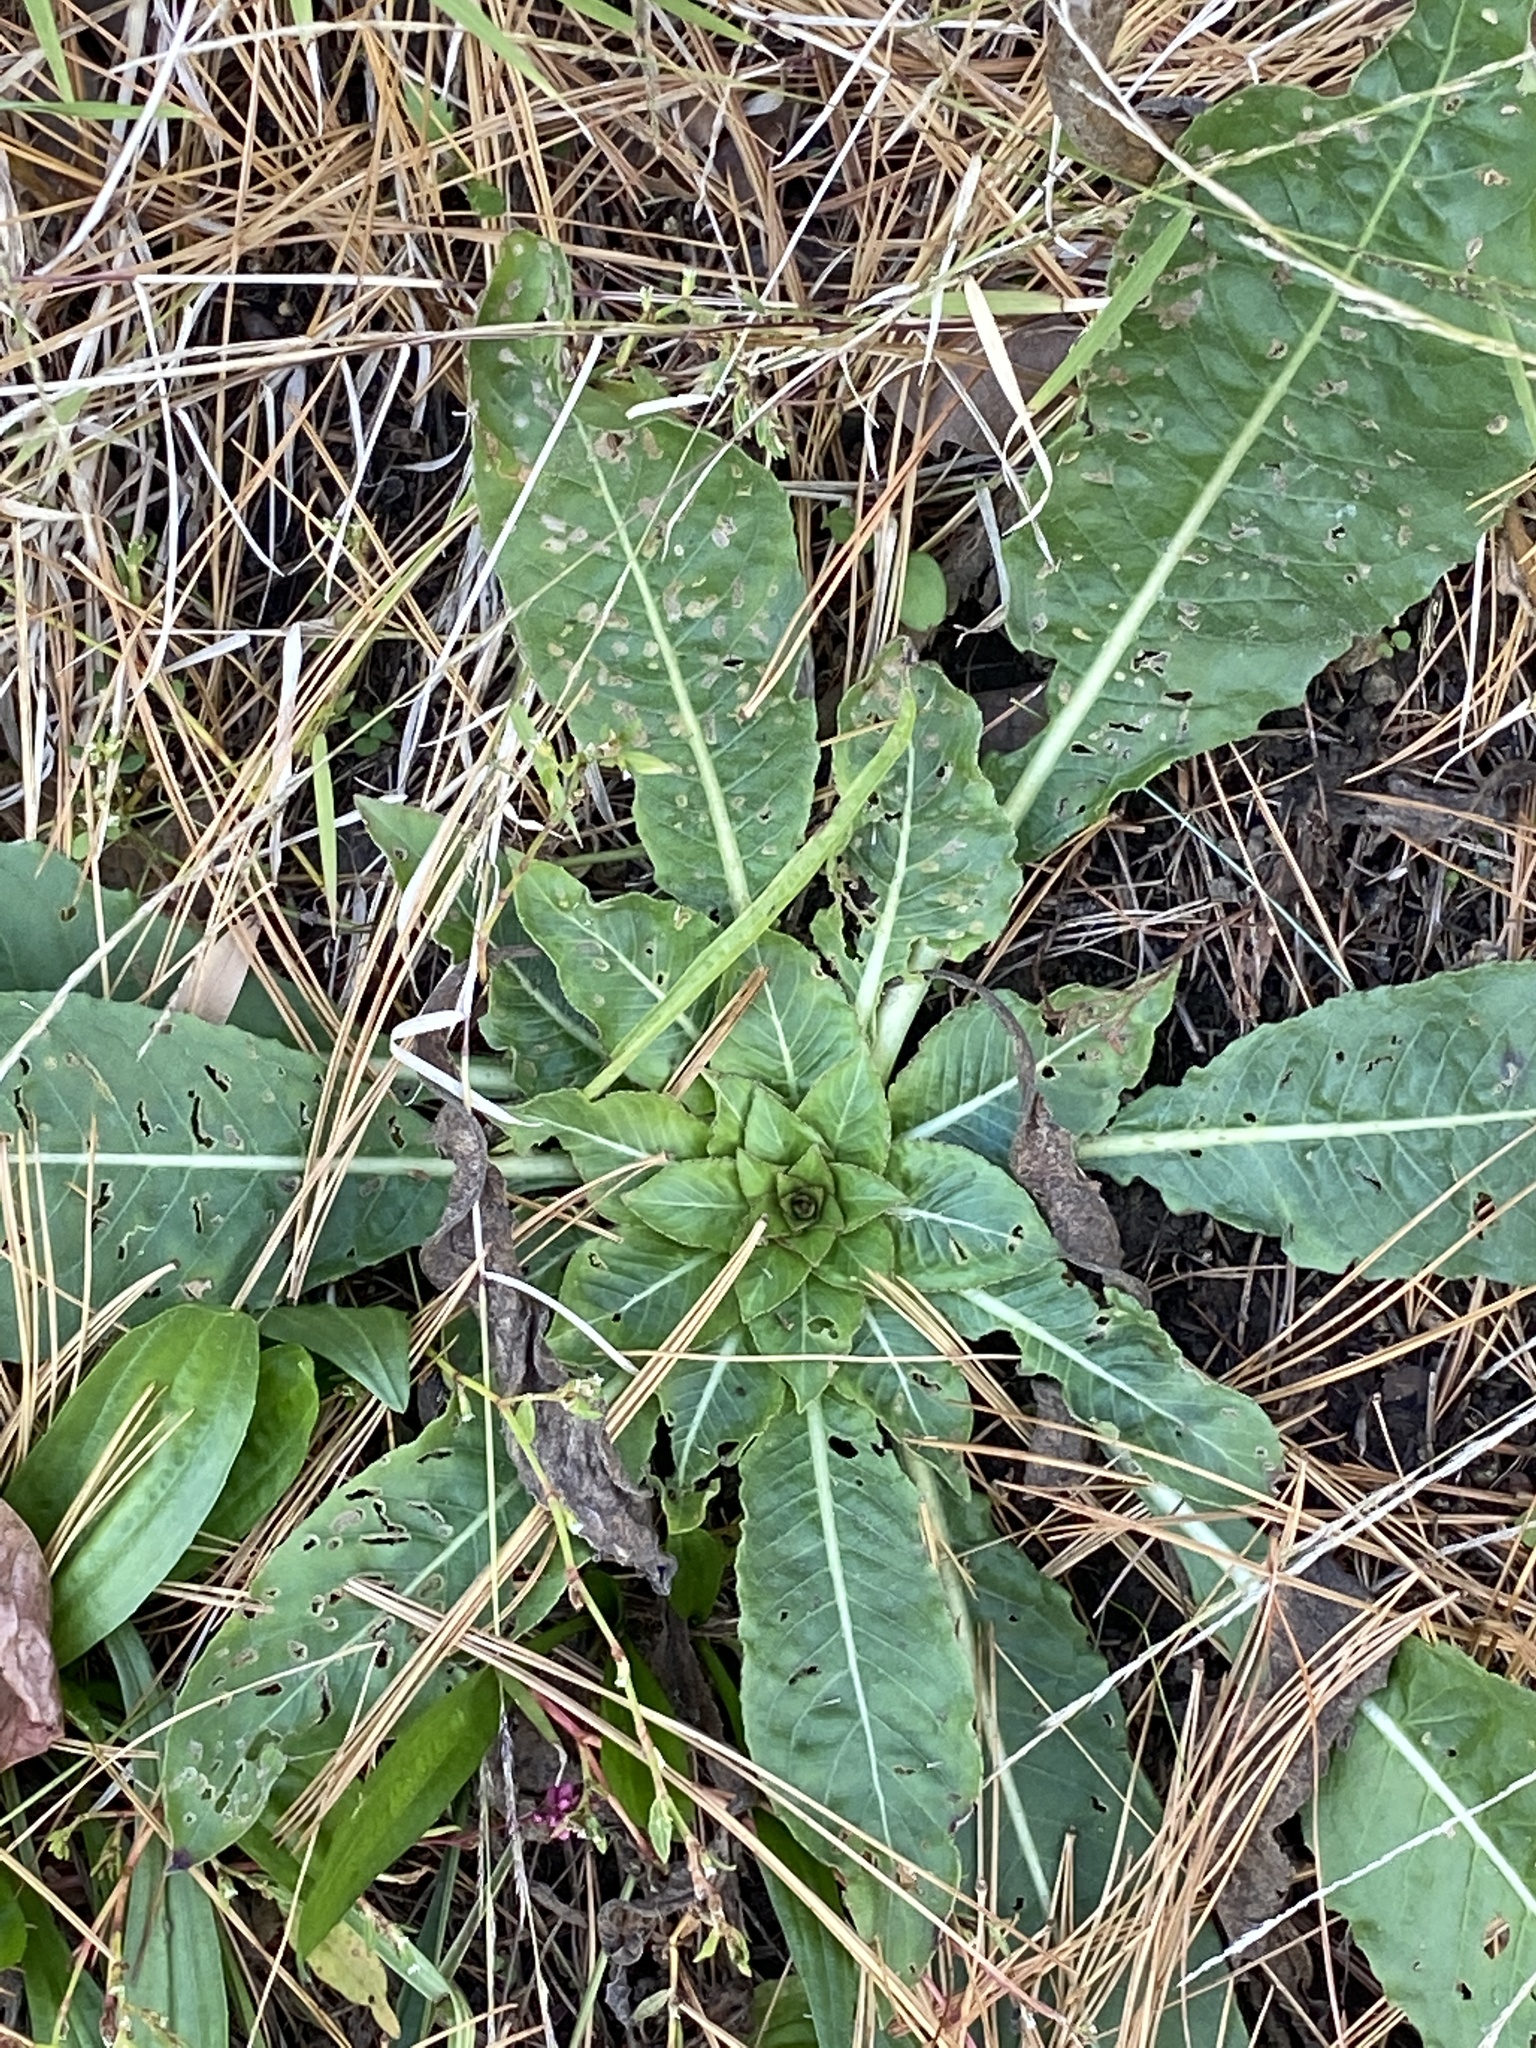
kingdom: Plantae
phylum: Tracheophyta
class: Magnoliopsida
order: Myrtales
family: Onagraceae
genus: Oenothera
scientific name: Oenothera biennis
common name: Common evening-primrose
